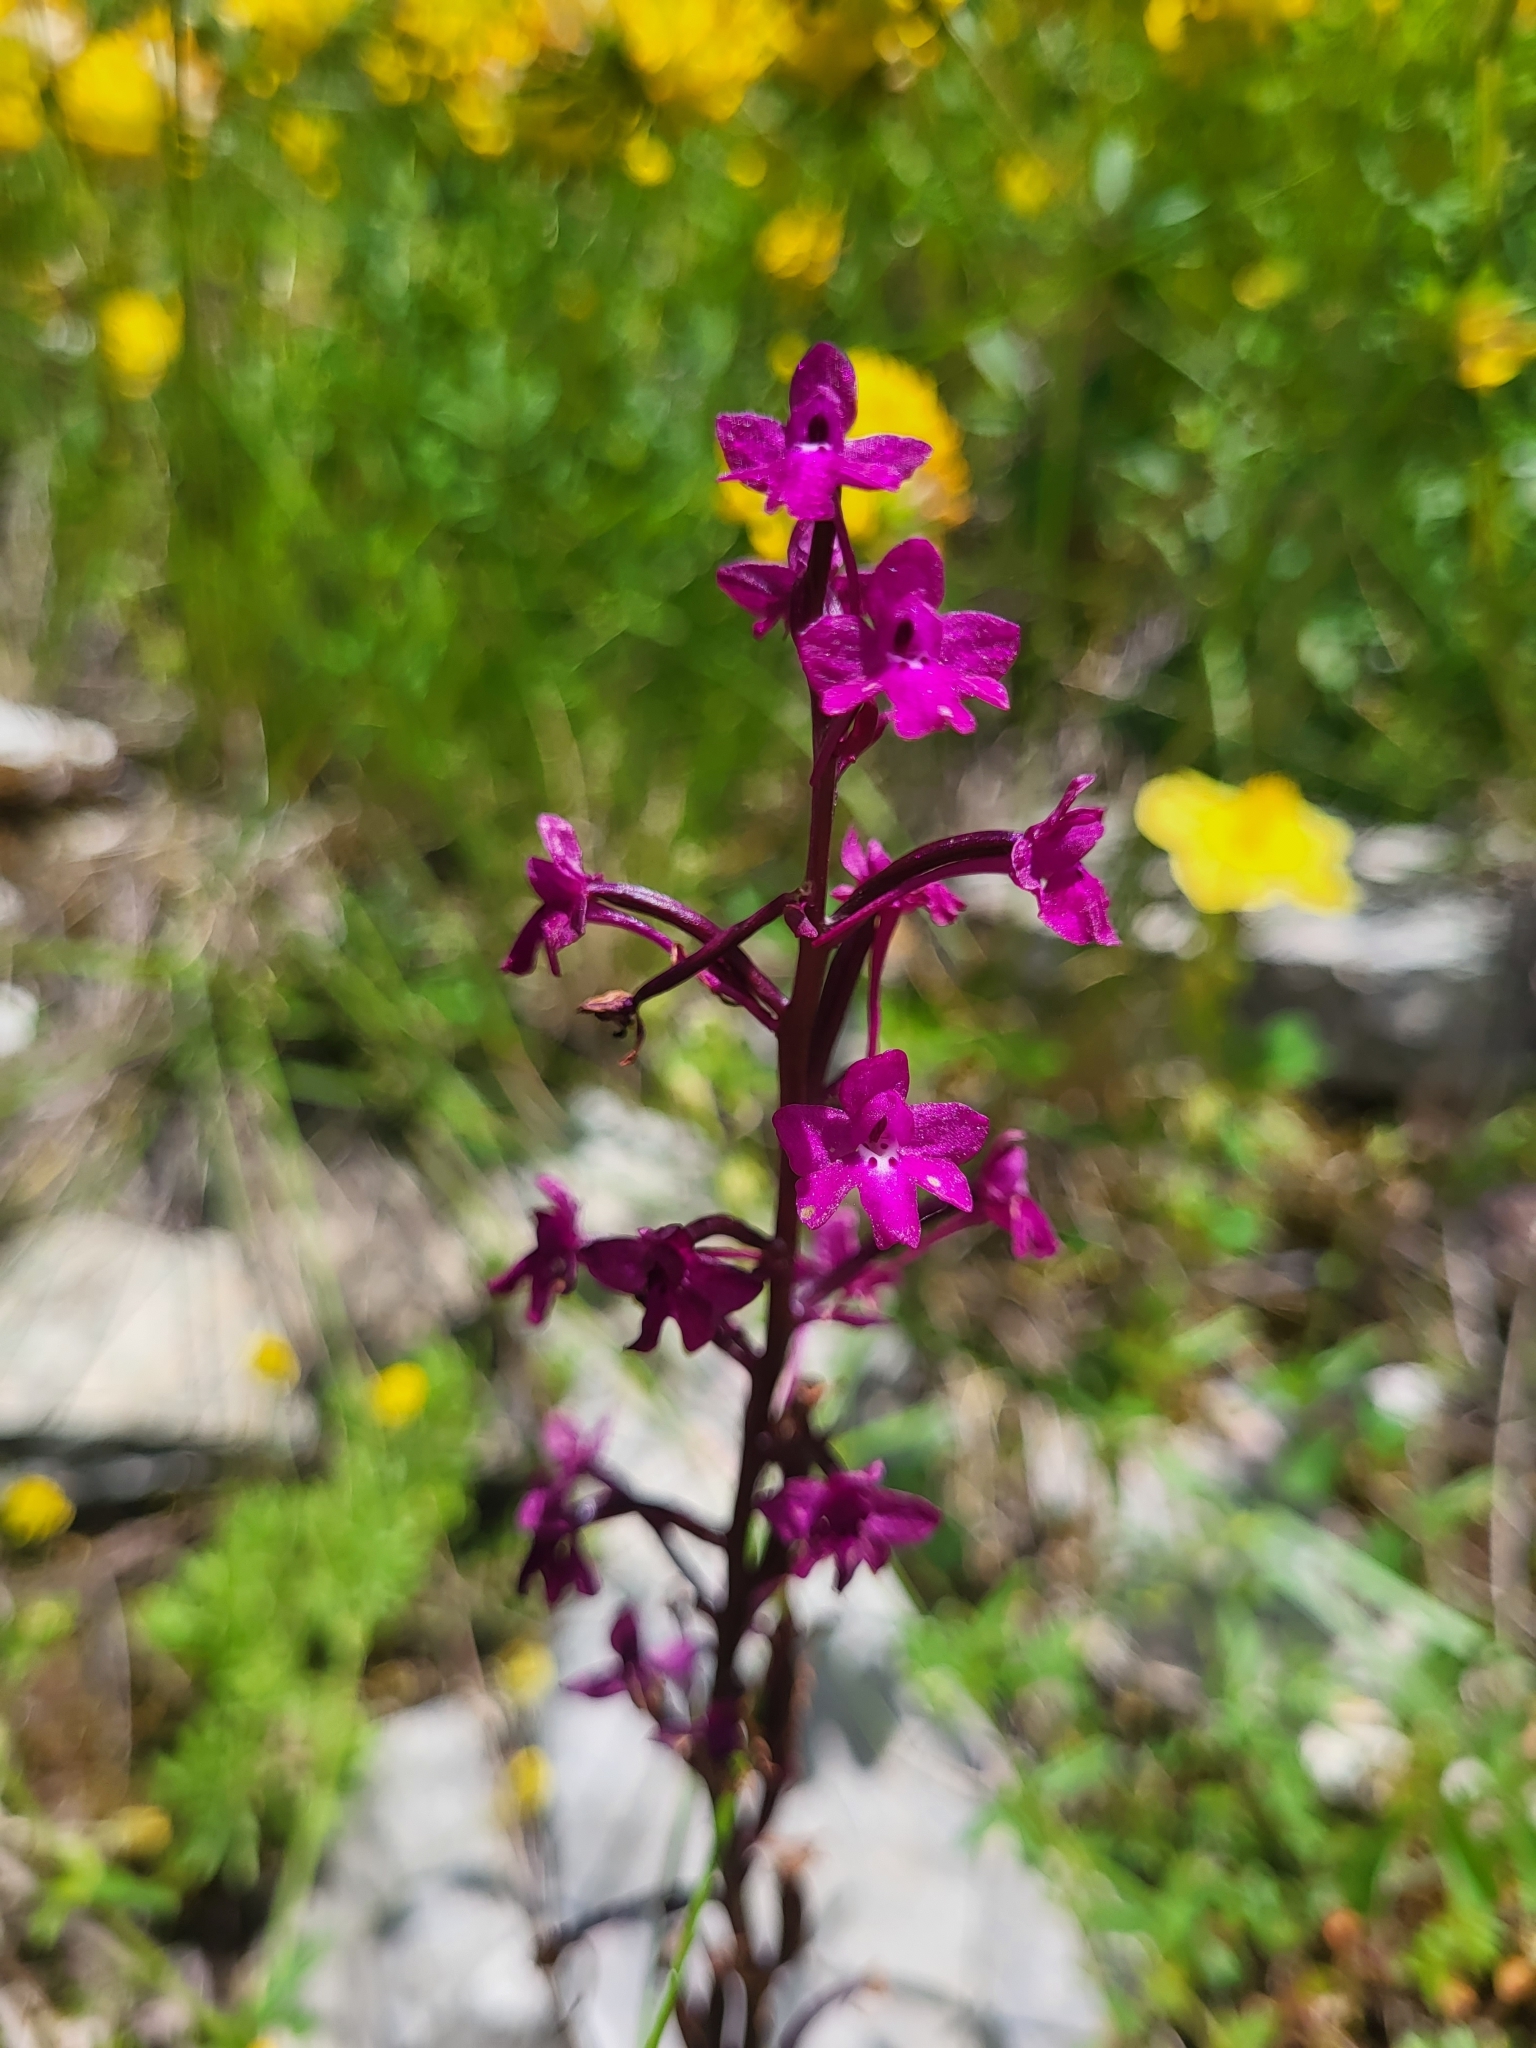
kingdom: Plantae
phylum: Tracheophyta
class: Liliopsida
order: Asparagales
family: Orchidaceae
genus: Orchis
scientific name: Orchis quadripunctata
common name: Four-spotted orchid
